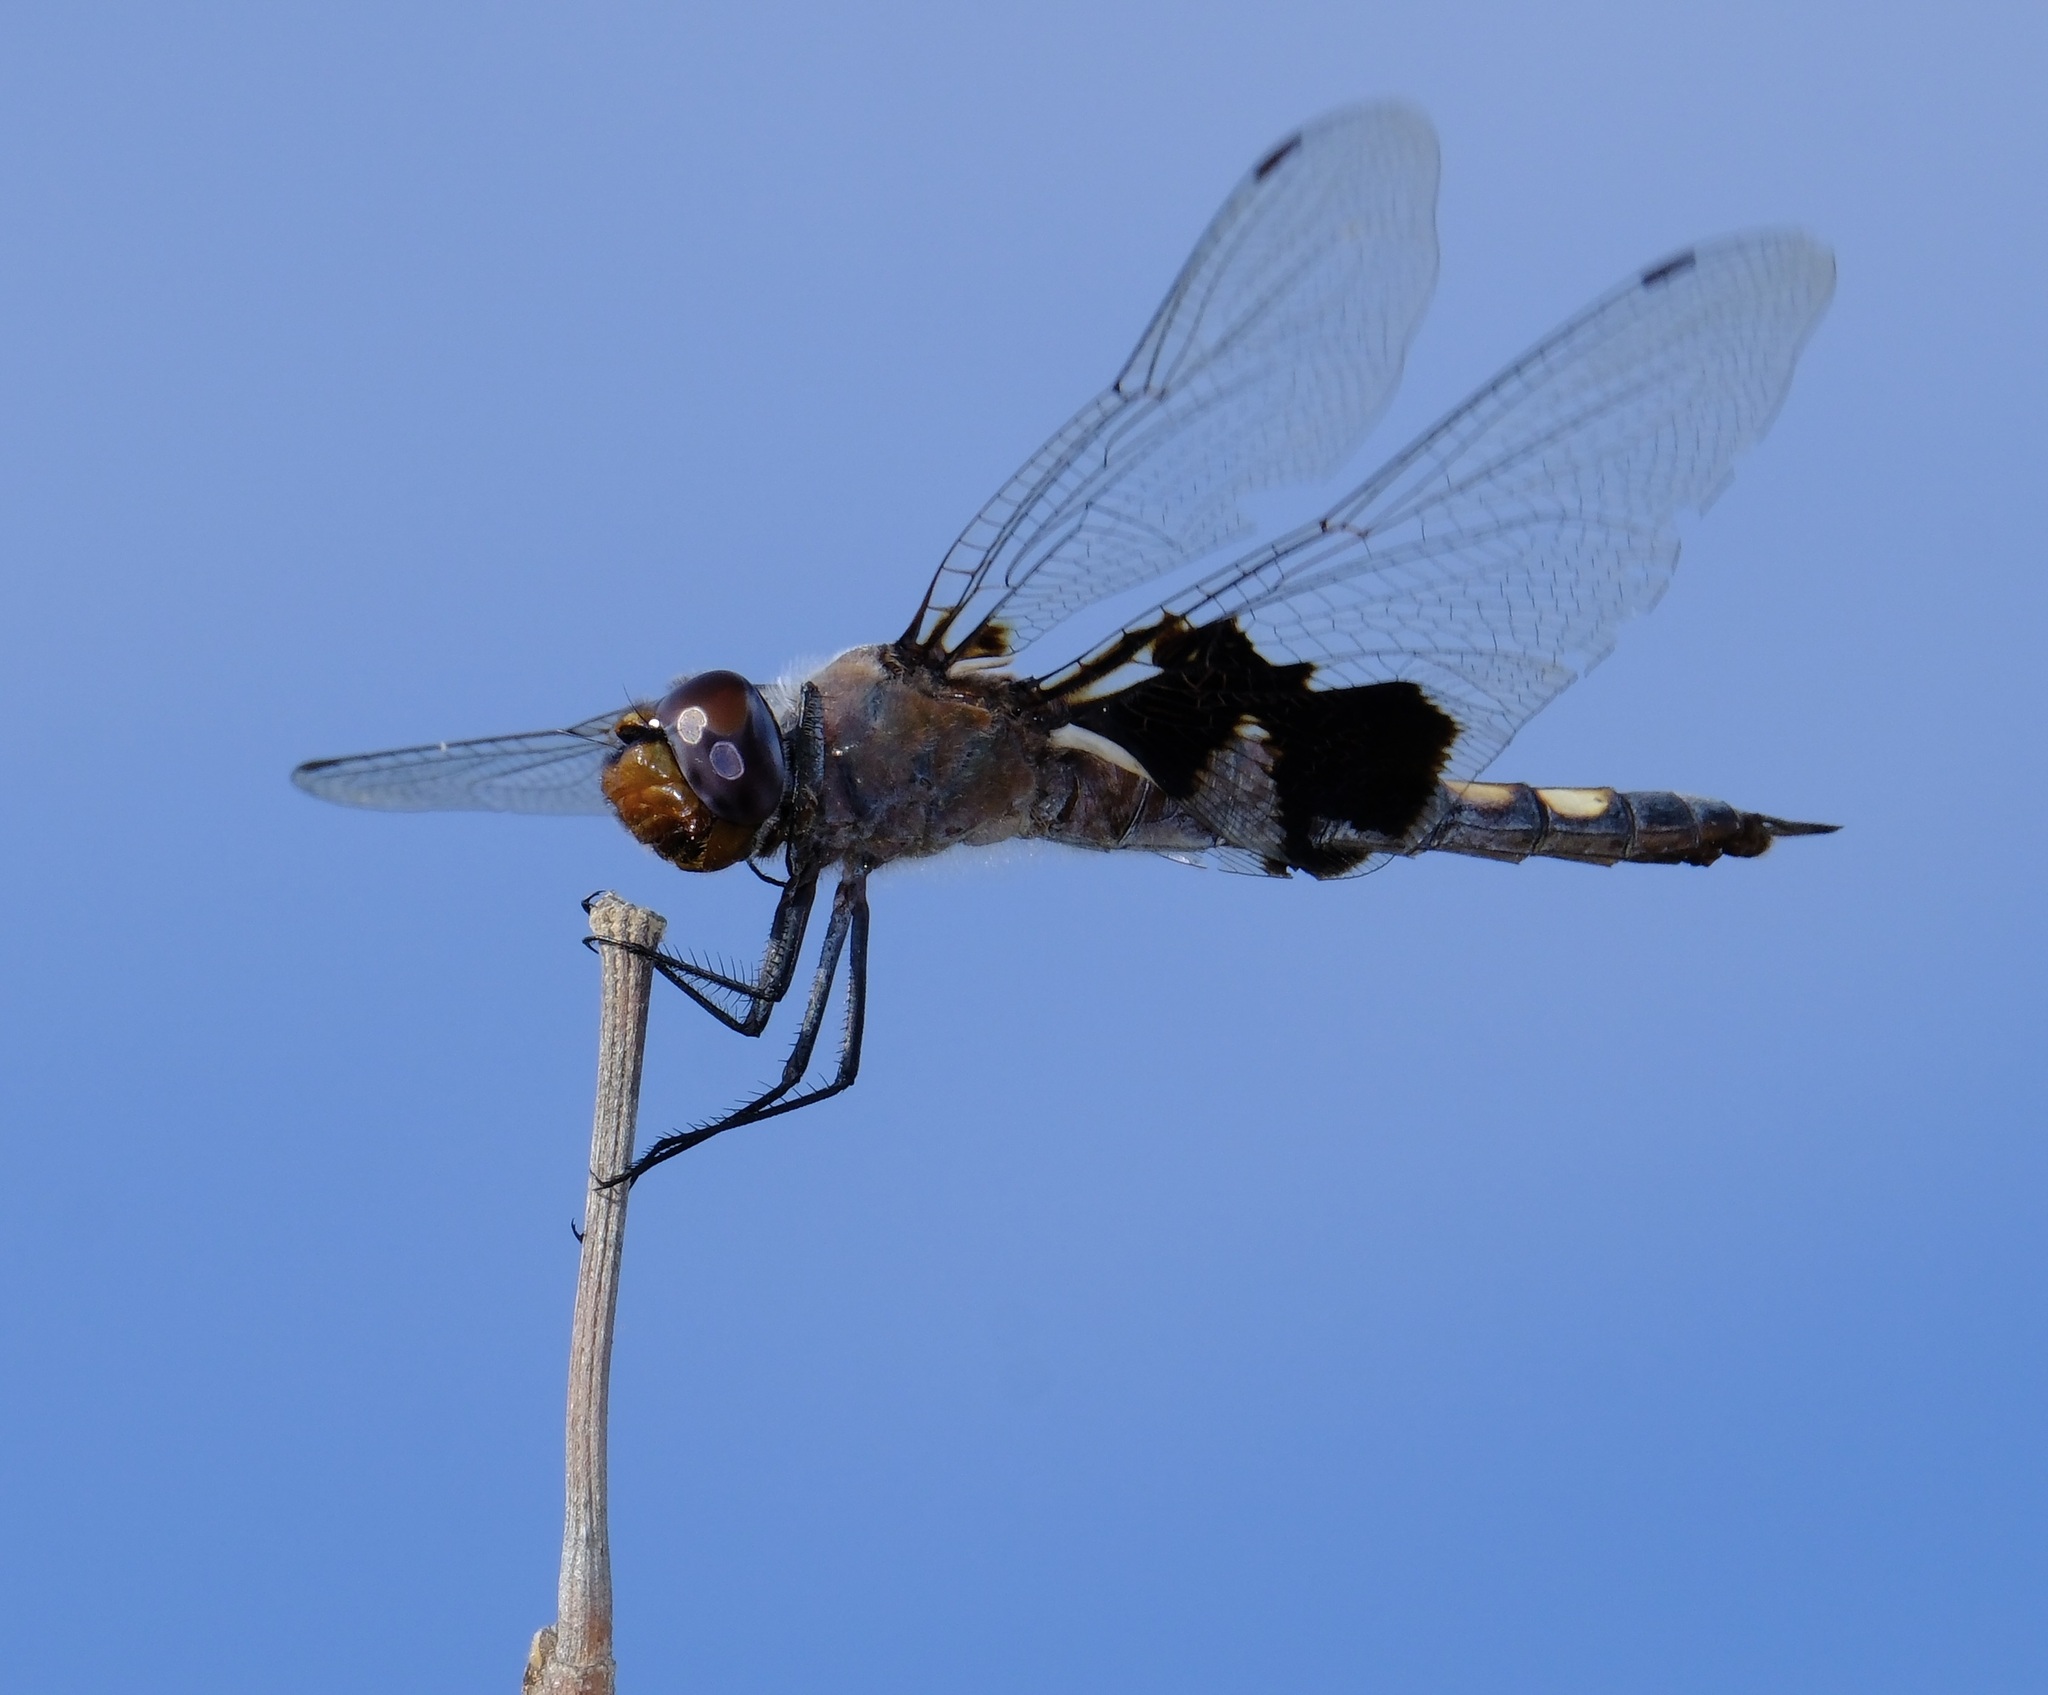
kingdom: Animalia
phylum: Arthropoda
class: Insecta
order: Odonata
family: Libellulidae
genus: Tramea
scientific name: Tramea lacerata
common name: Black saddlebags
